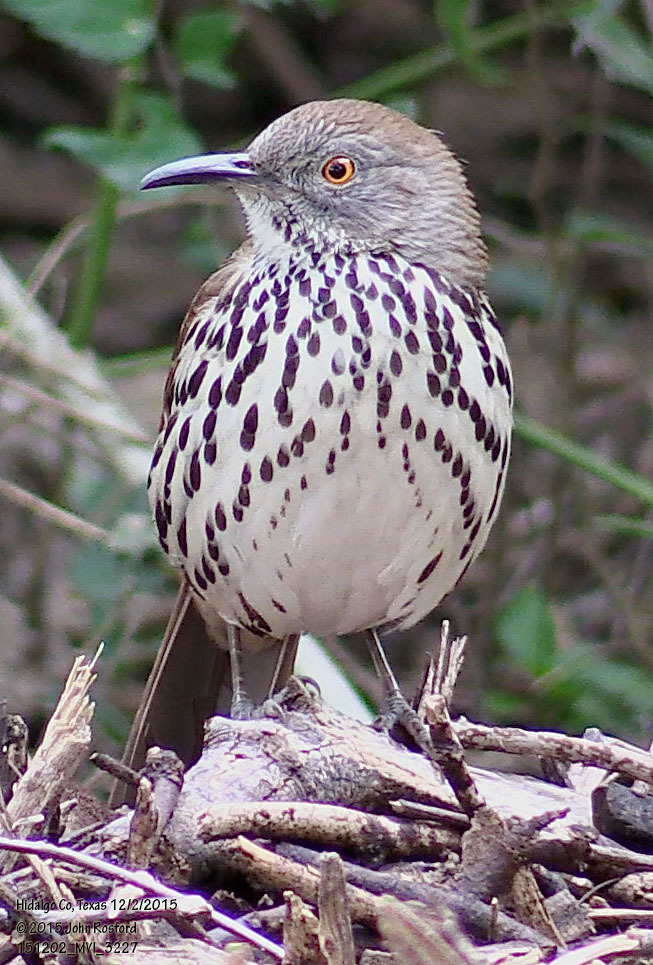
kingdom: Animalia
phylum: Chordata
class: Aves
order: Passeriformes
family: Mimidae
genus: Toxostoma
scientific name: Toxostoma longirostre
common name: Long-billed thrasher
